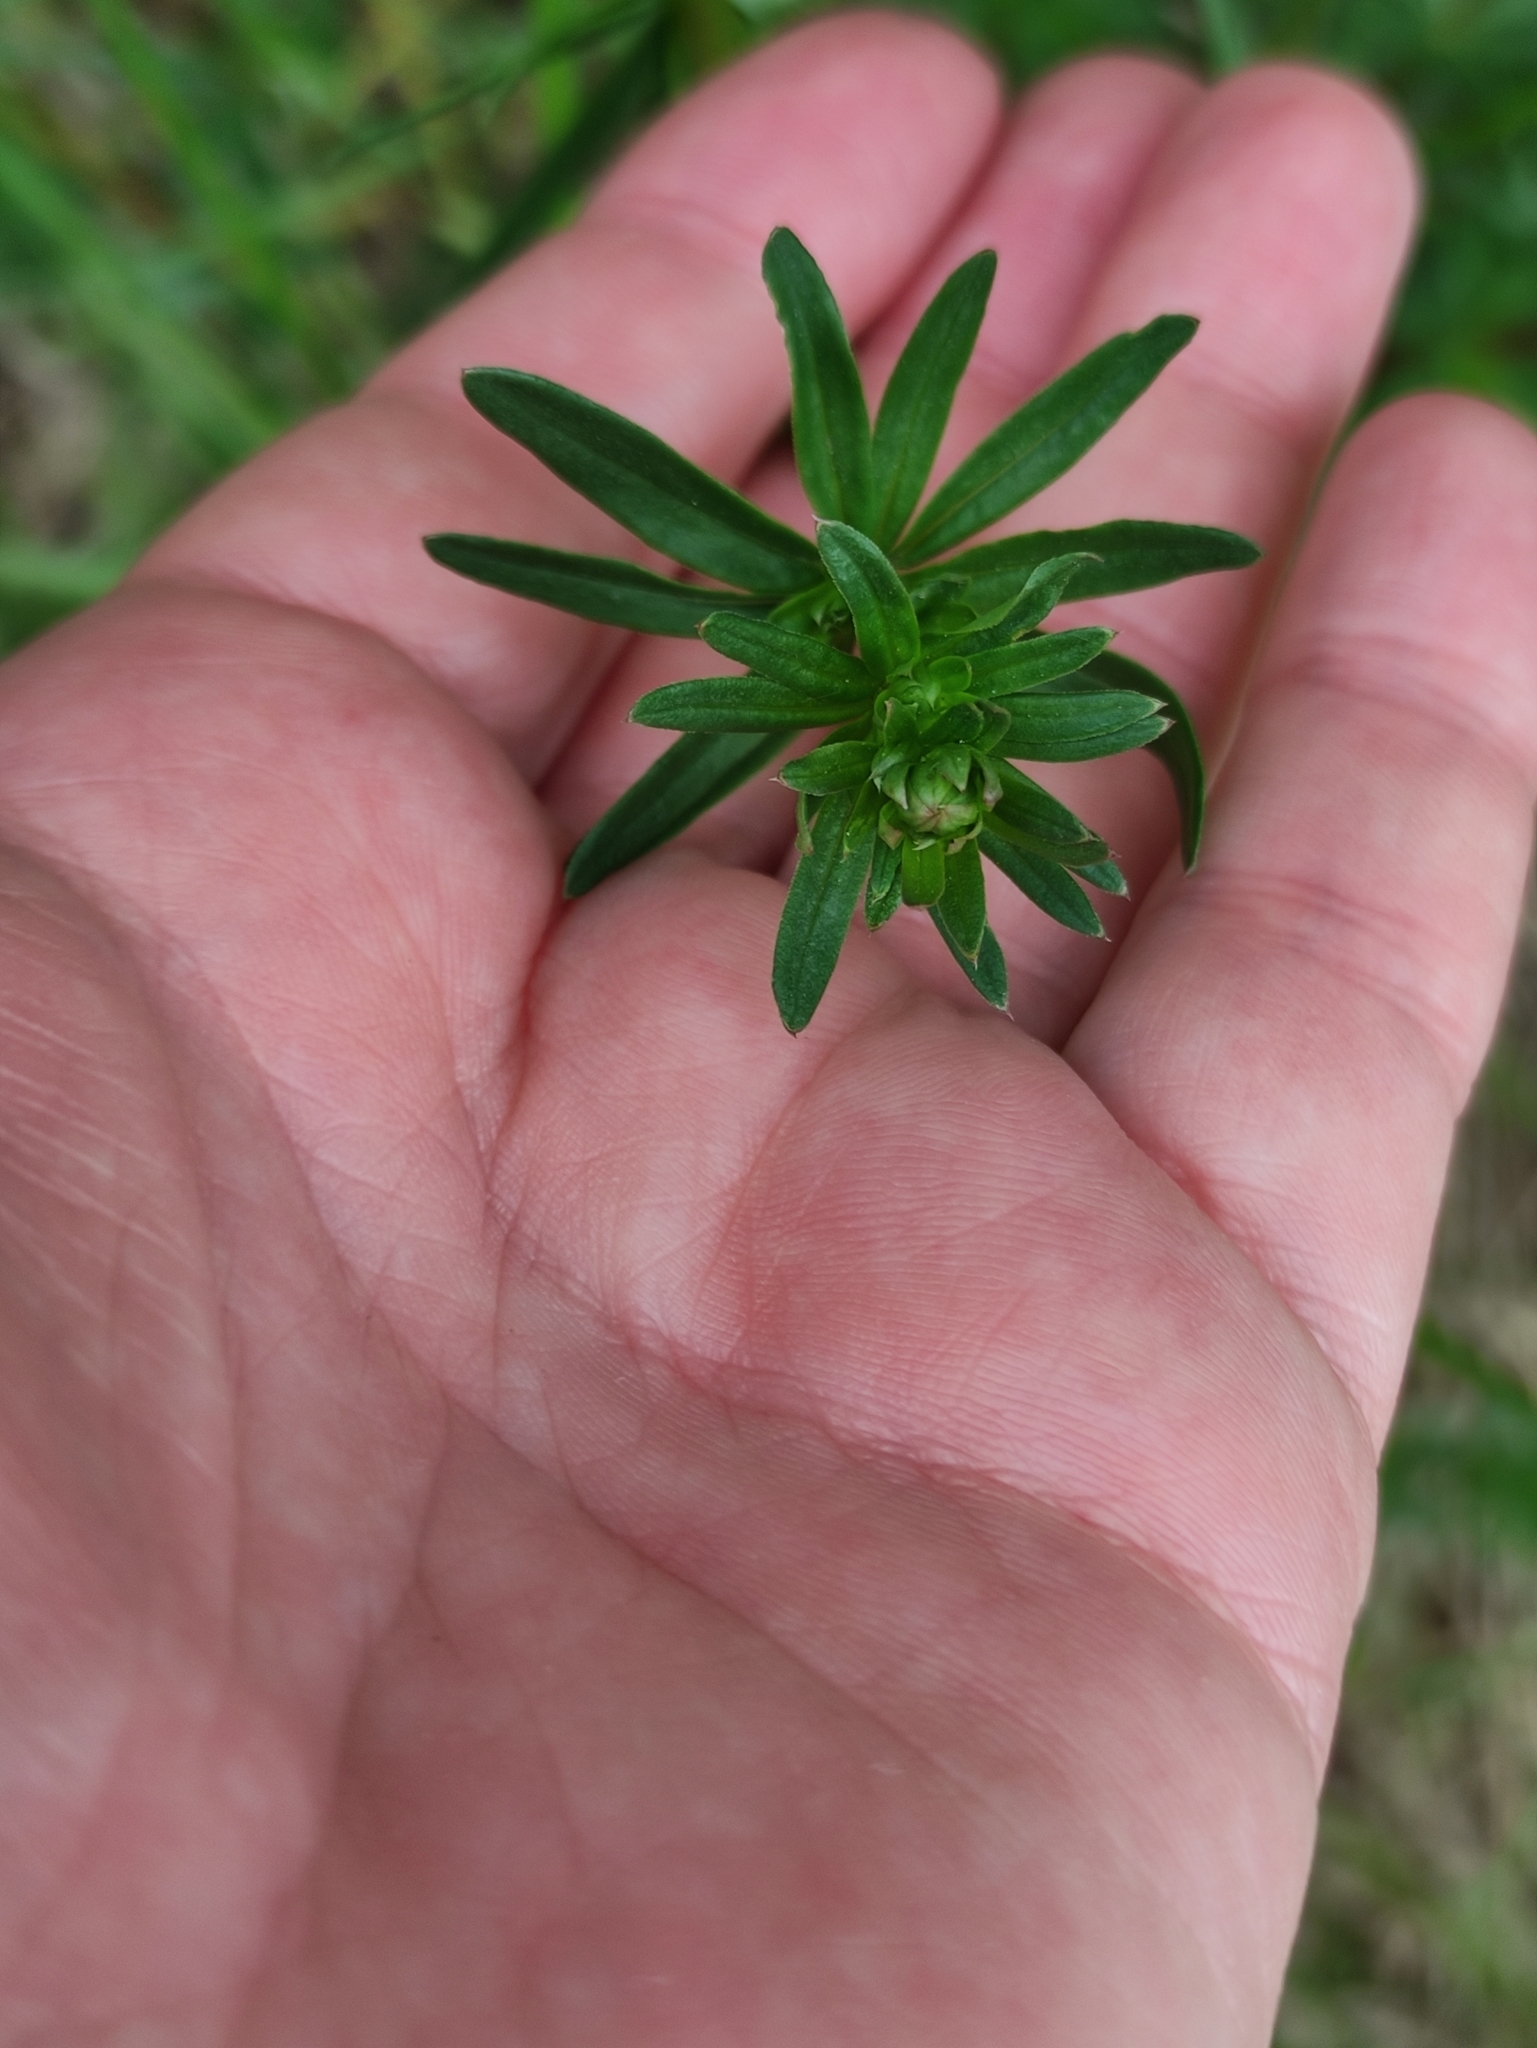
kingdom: Plantae
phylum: Tracheophyta
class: Magnoliopsida
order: Gentianales
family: Rubiaceae
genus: Galium
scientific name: Galium mollugo
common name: Hedge bedstraw
